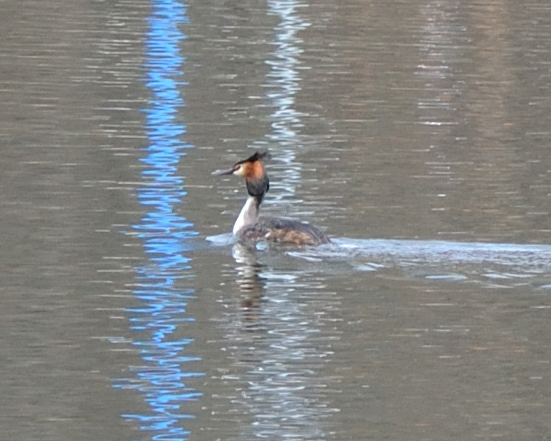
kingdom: Animalia
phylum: Chordata
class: Aves
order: Podicipediformes
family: Podicipedidae
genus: Podiceps
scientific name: Podiceps cristatus
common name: Great crested grebe
